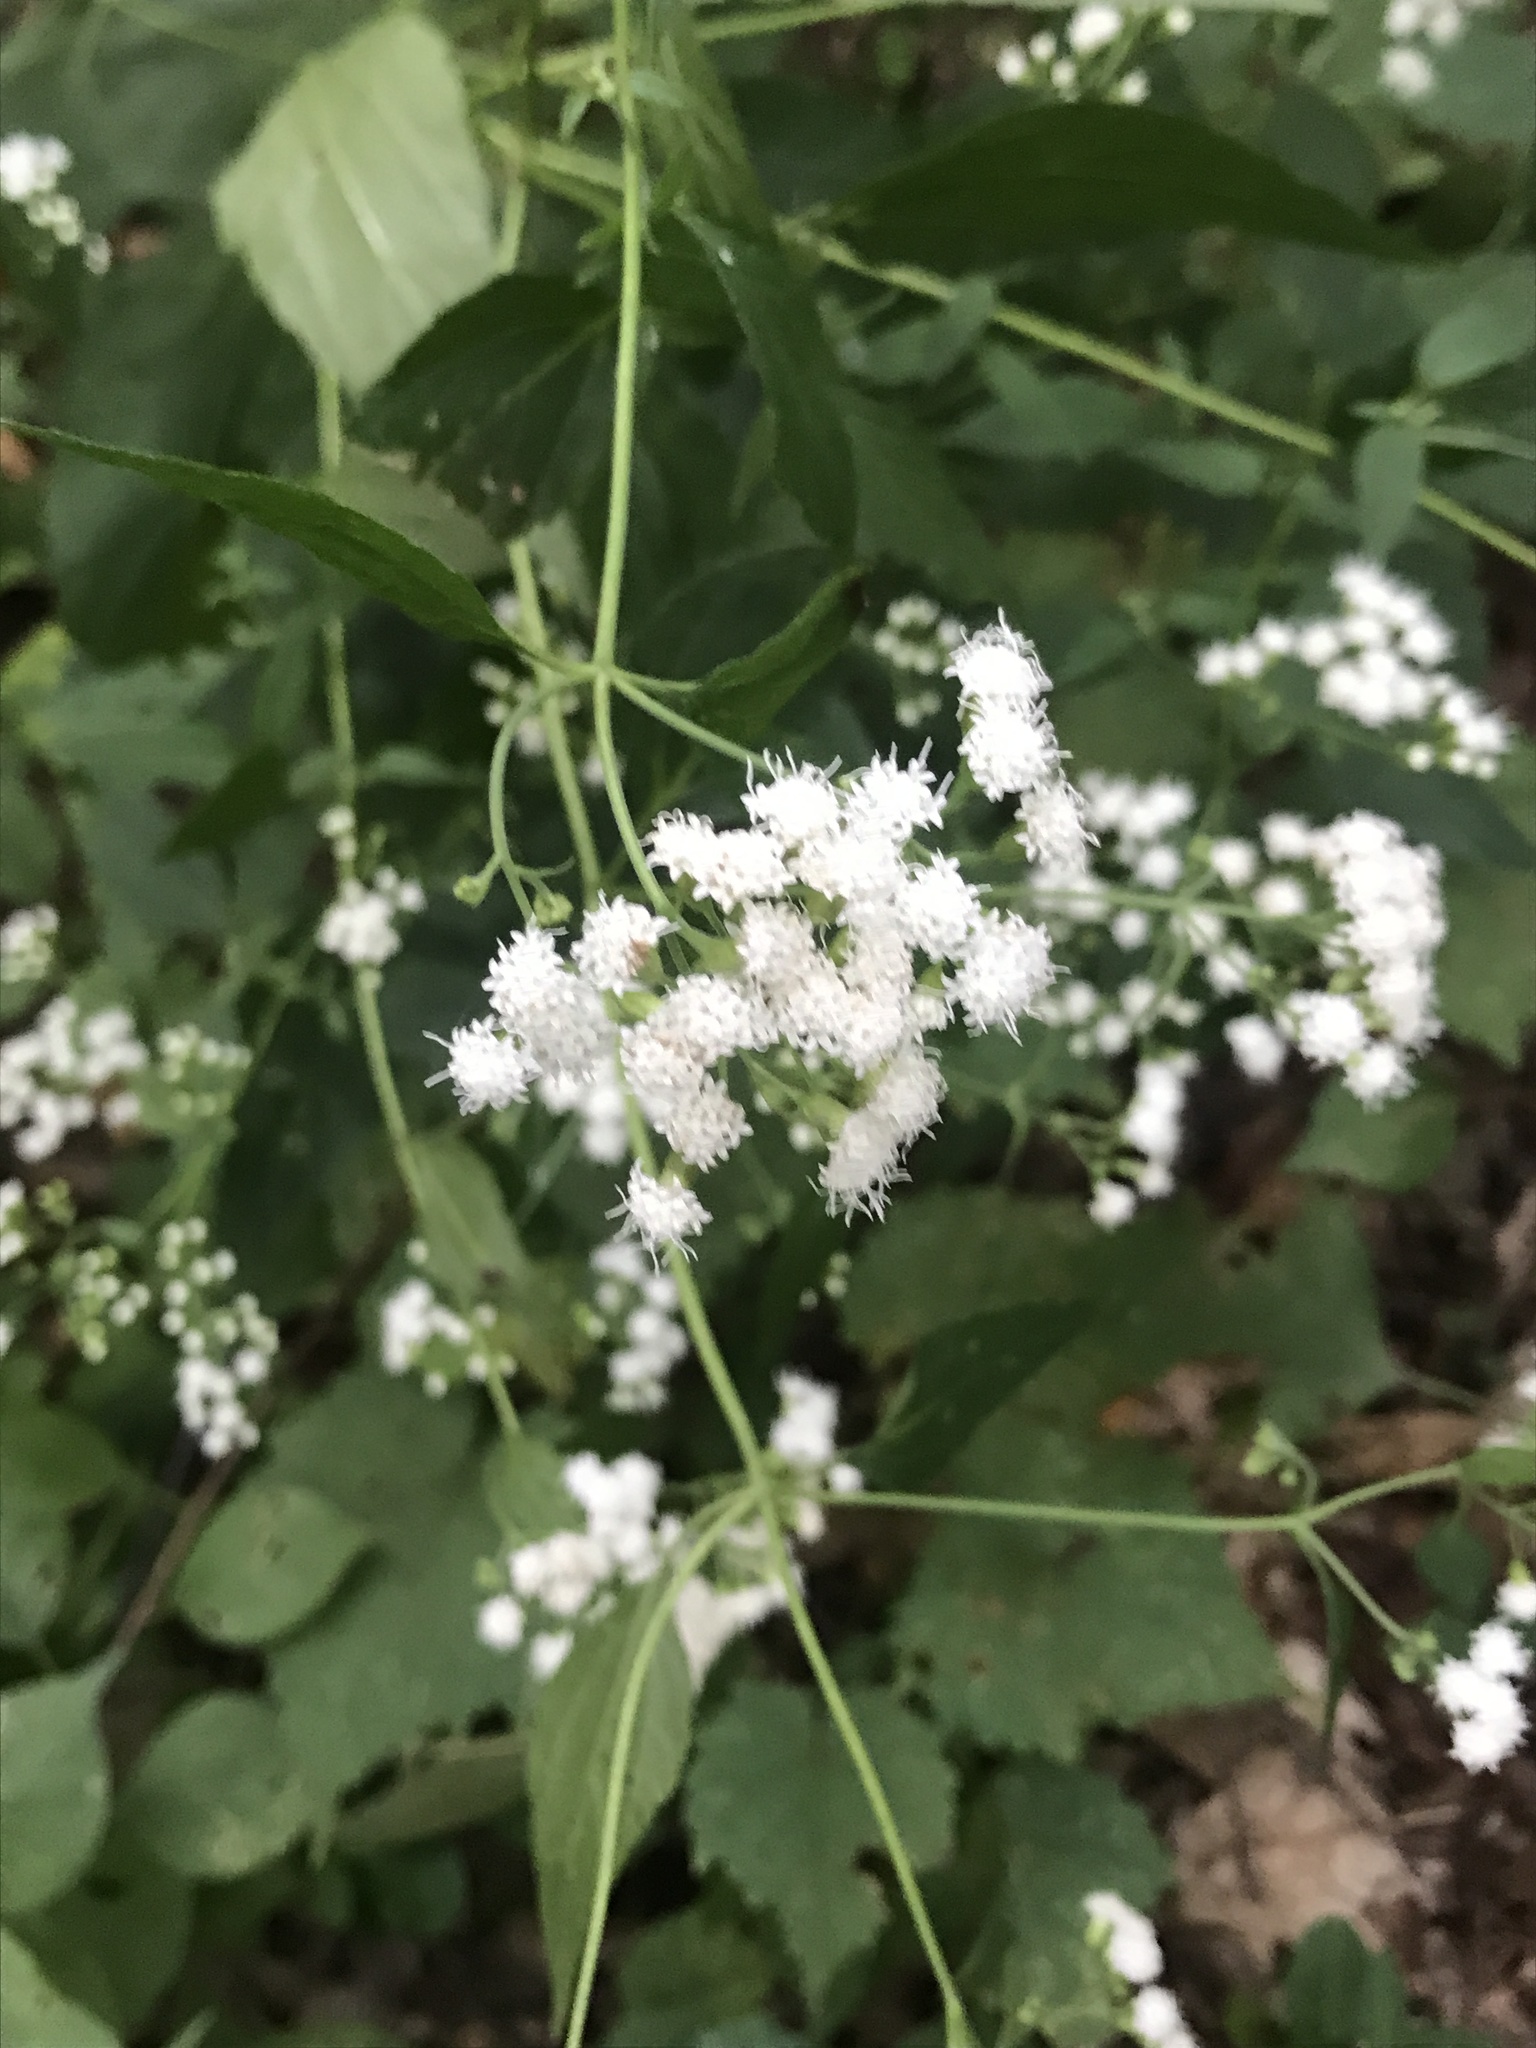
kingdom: Plantae
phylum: Tracheophyta
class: Magnoliopsida
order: Asterales
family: Asteraceae
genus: Ageratina
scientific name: Ageratina altissima
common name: White snakeroot
